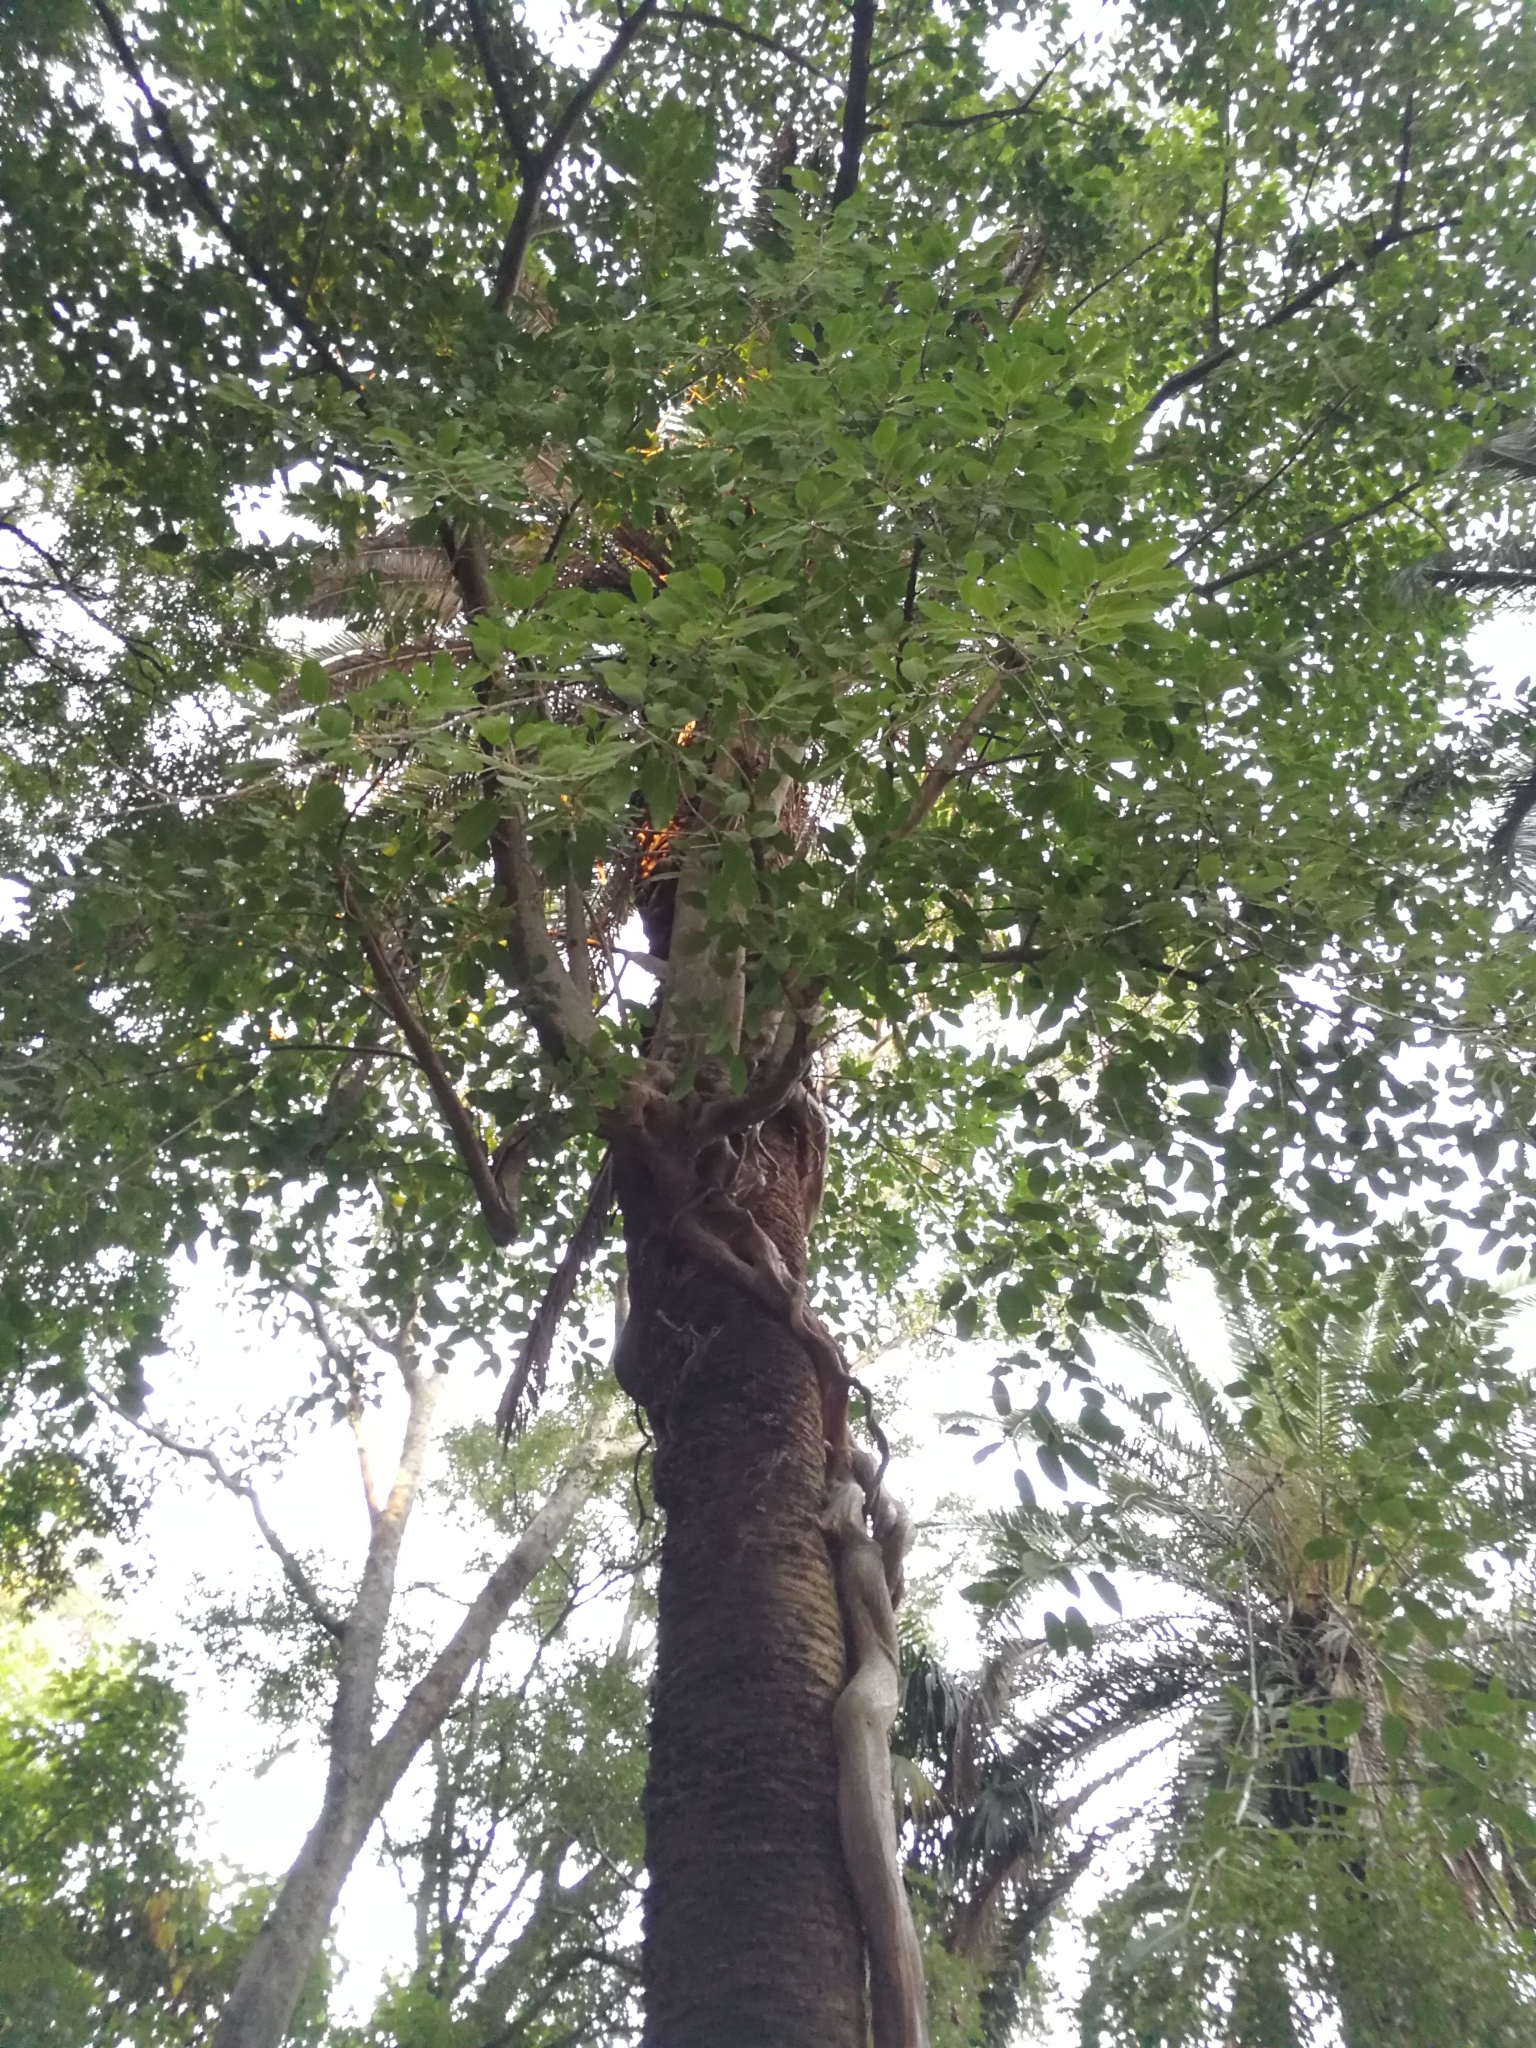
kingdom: Plantae
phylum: Tracheophyta
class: Magnoliopsida
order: Rosales
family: Moraceae
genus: Ficus
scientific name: Ficus luschnathiana
